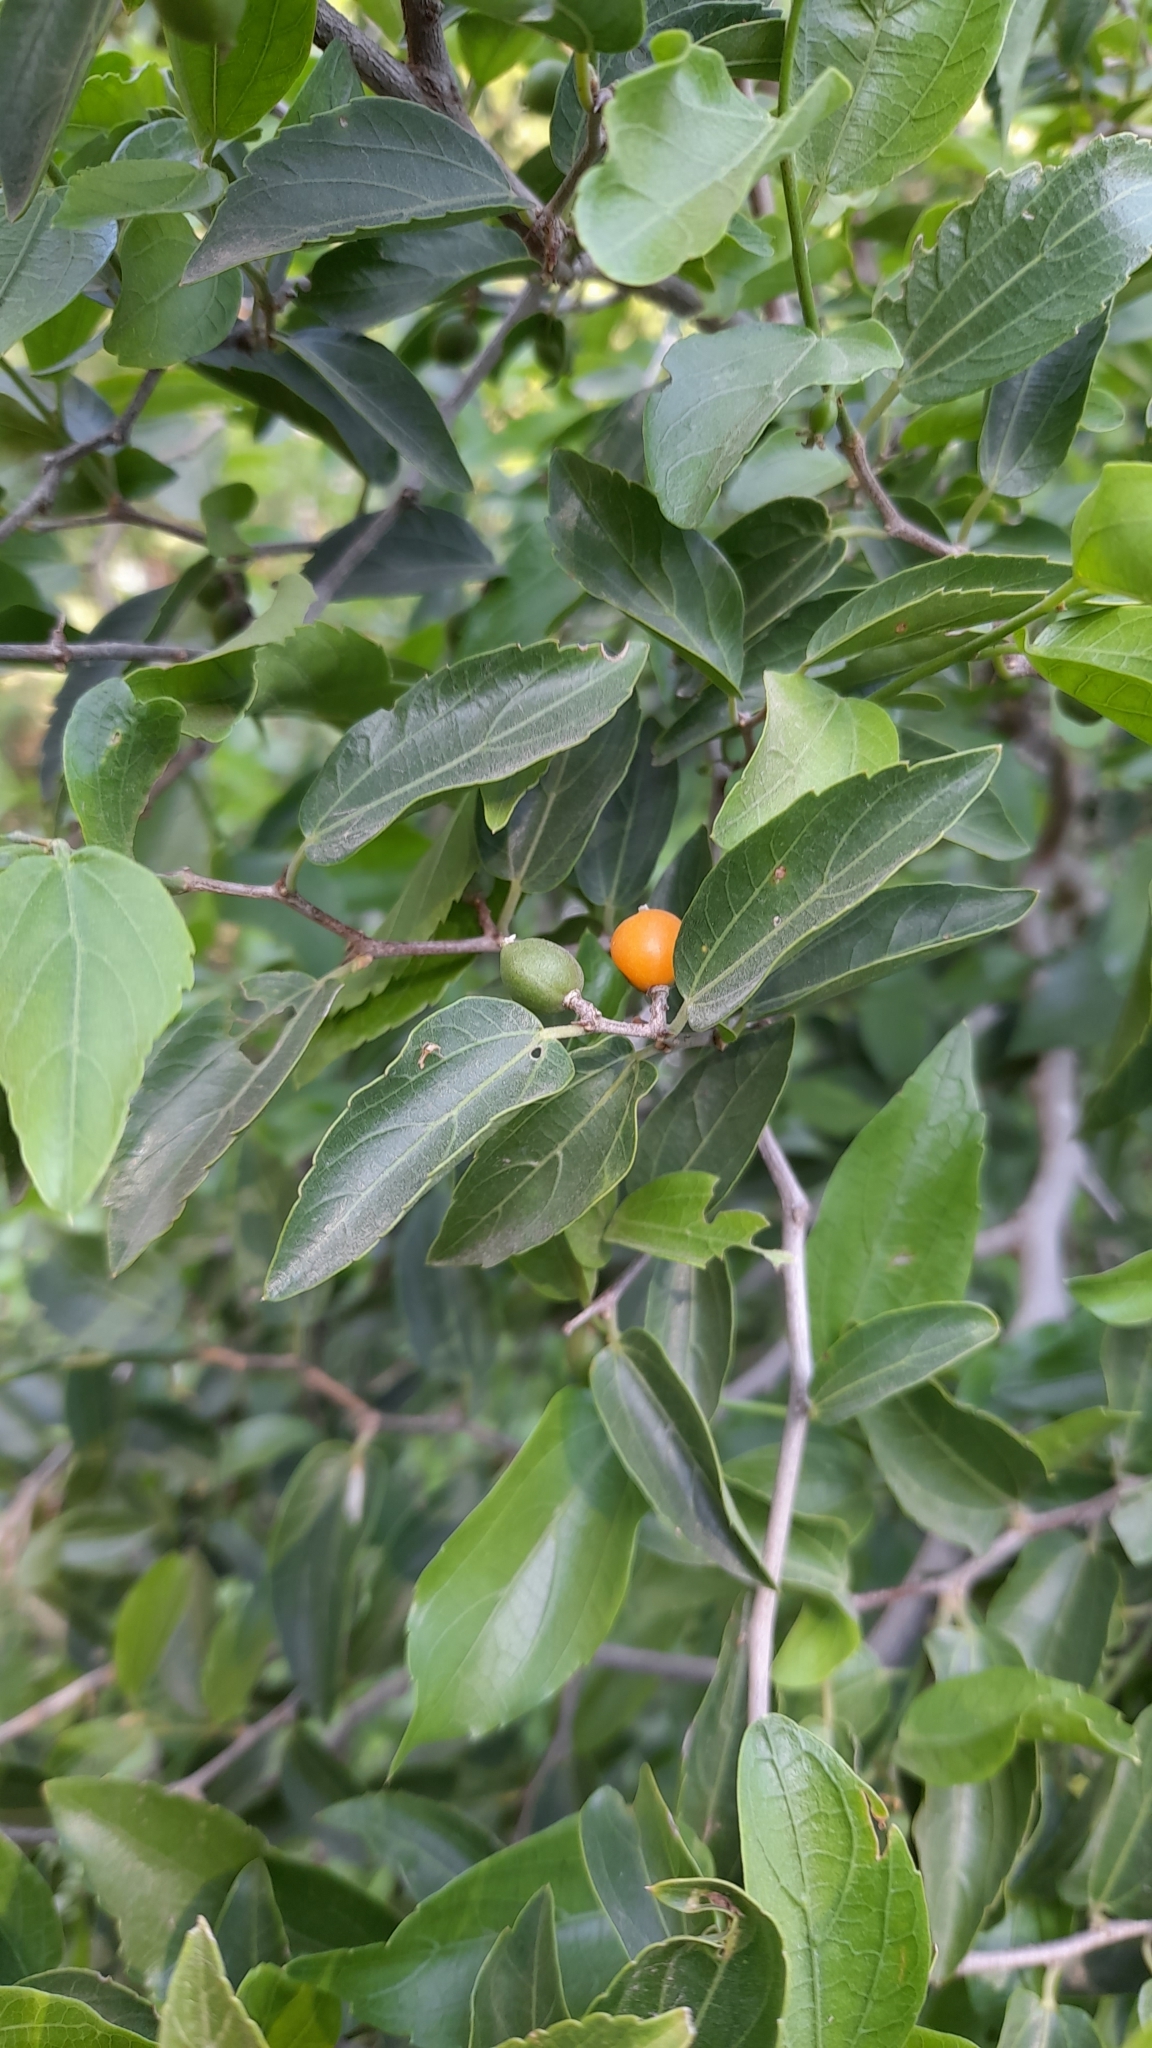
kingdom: Plantae
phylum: Tracheophyta
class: Magnoliopsida
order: Rosales
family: Cannabaceae
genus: Celtis
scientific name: Celtis tala
